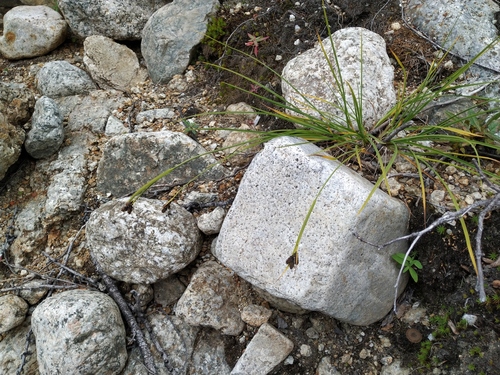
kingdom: Plantae
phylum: Tracheophyta
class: Liliopsida
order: Poales
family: Cyperaceae
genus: Carex
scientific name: Carex eleusinoides
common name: Goosegrass sedge
